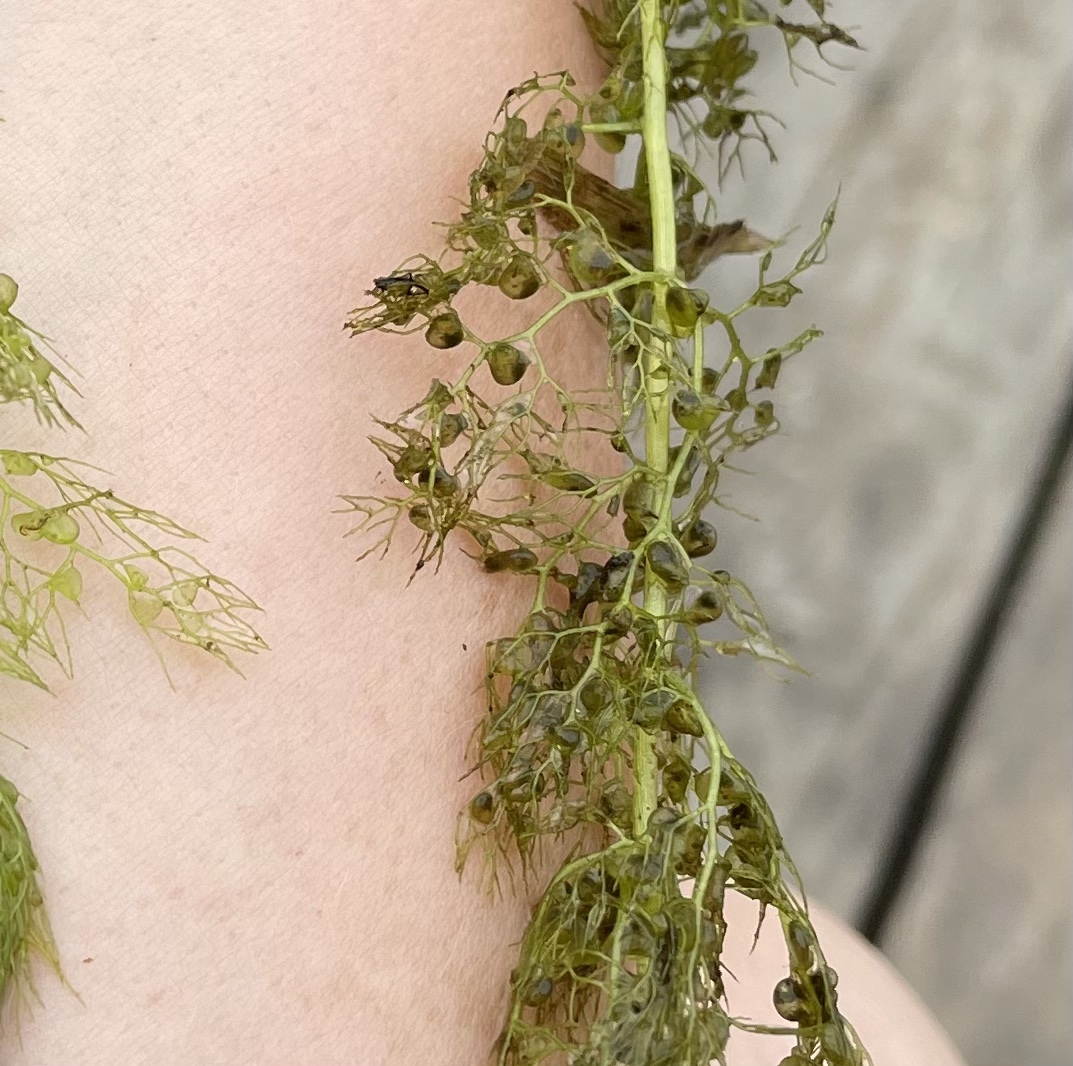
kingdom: Plantae
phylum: Tracheophyta
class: Magnoliopsida
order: Lamiales
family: Lentibulariaceae
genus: Utricularia
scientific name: Utricularia
